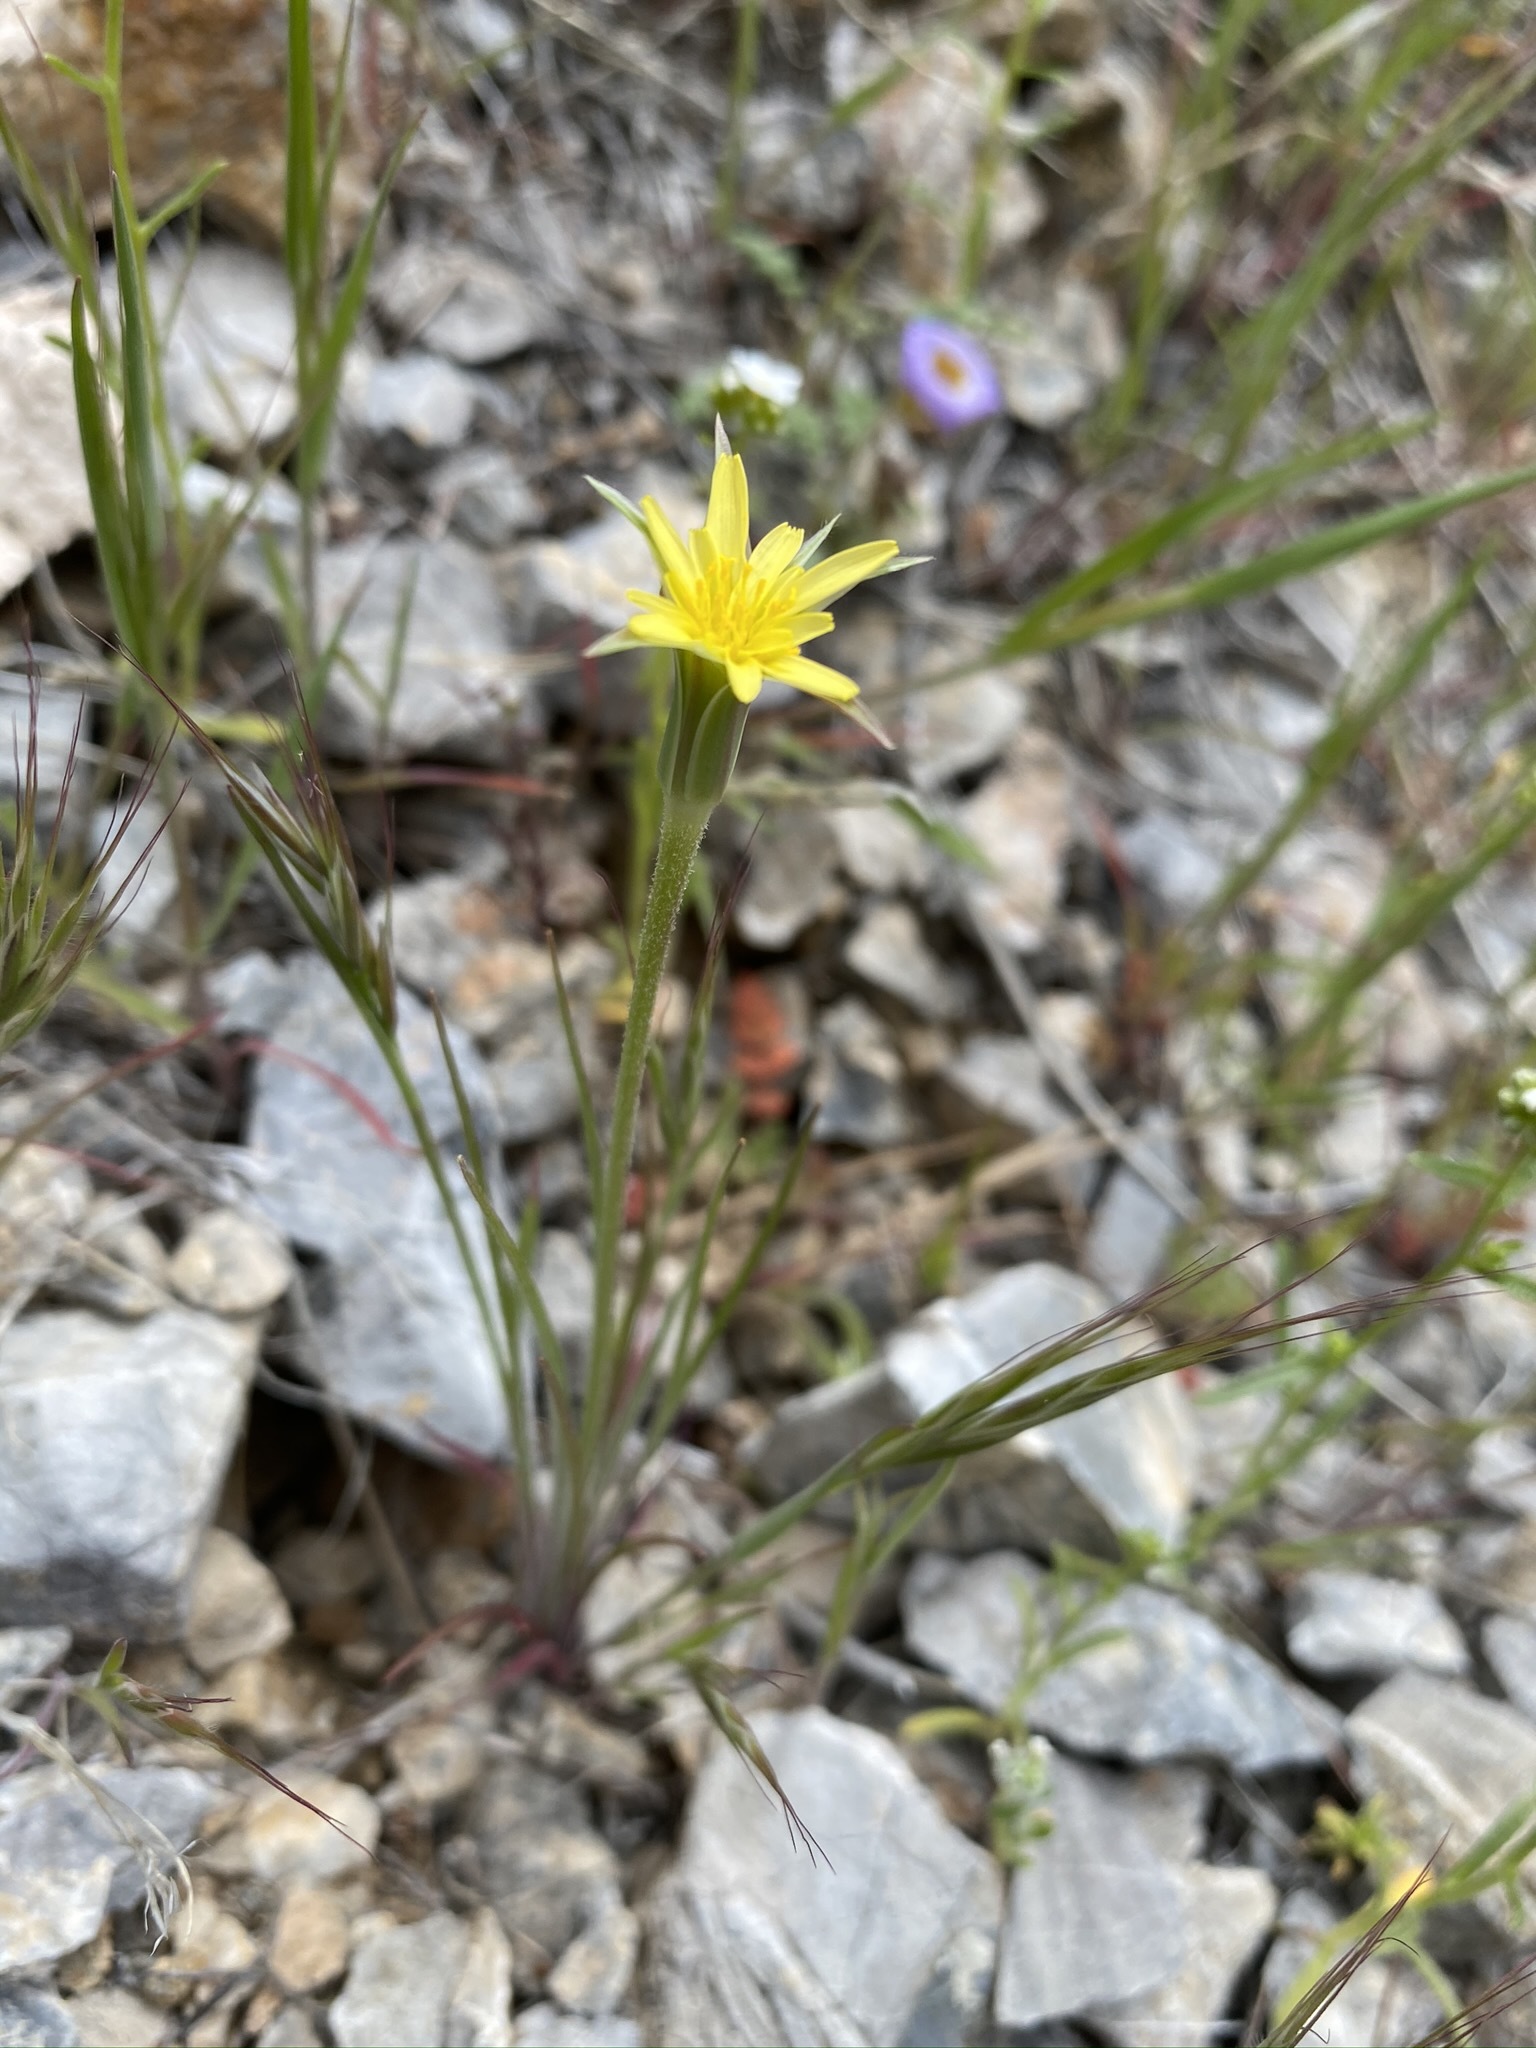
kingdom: Plantae
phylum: Tracheophyta
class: Magnoliopsida
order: Asterales
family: Asteraceae
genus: Microseris
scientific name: Microseris lindleyi
